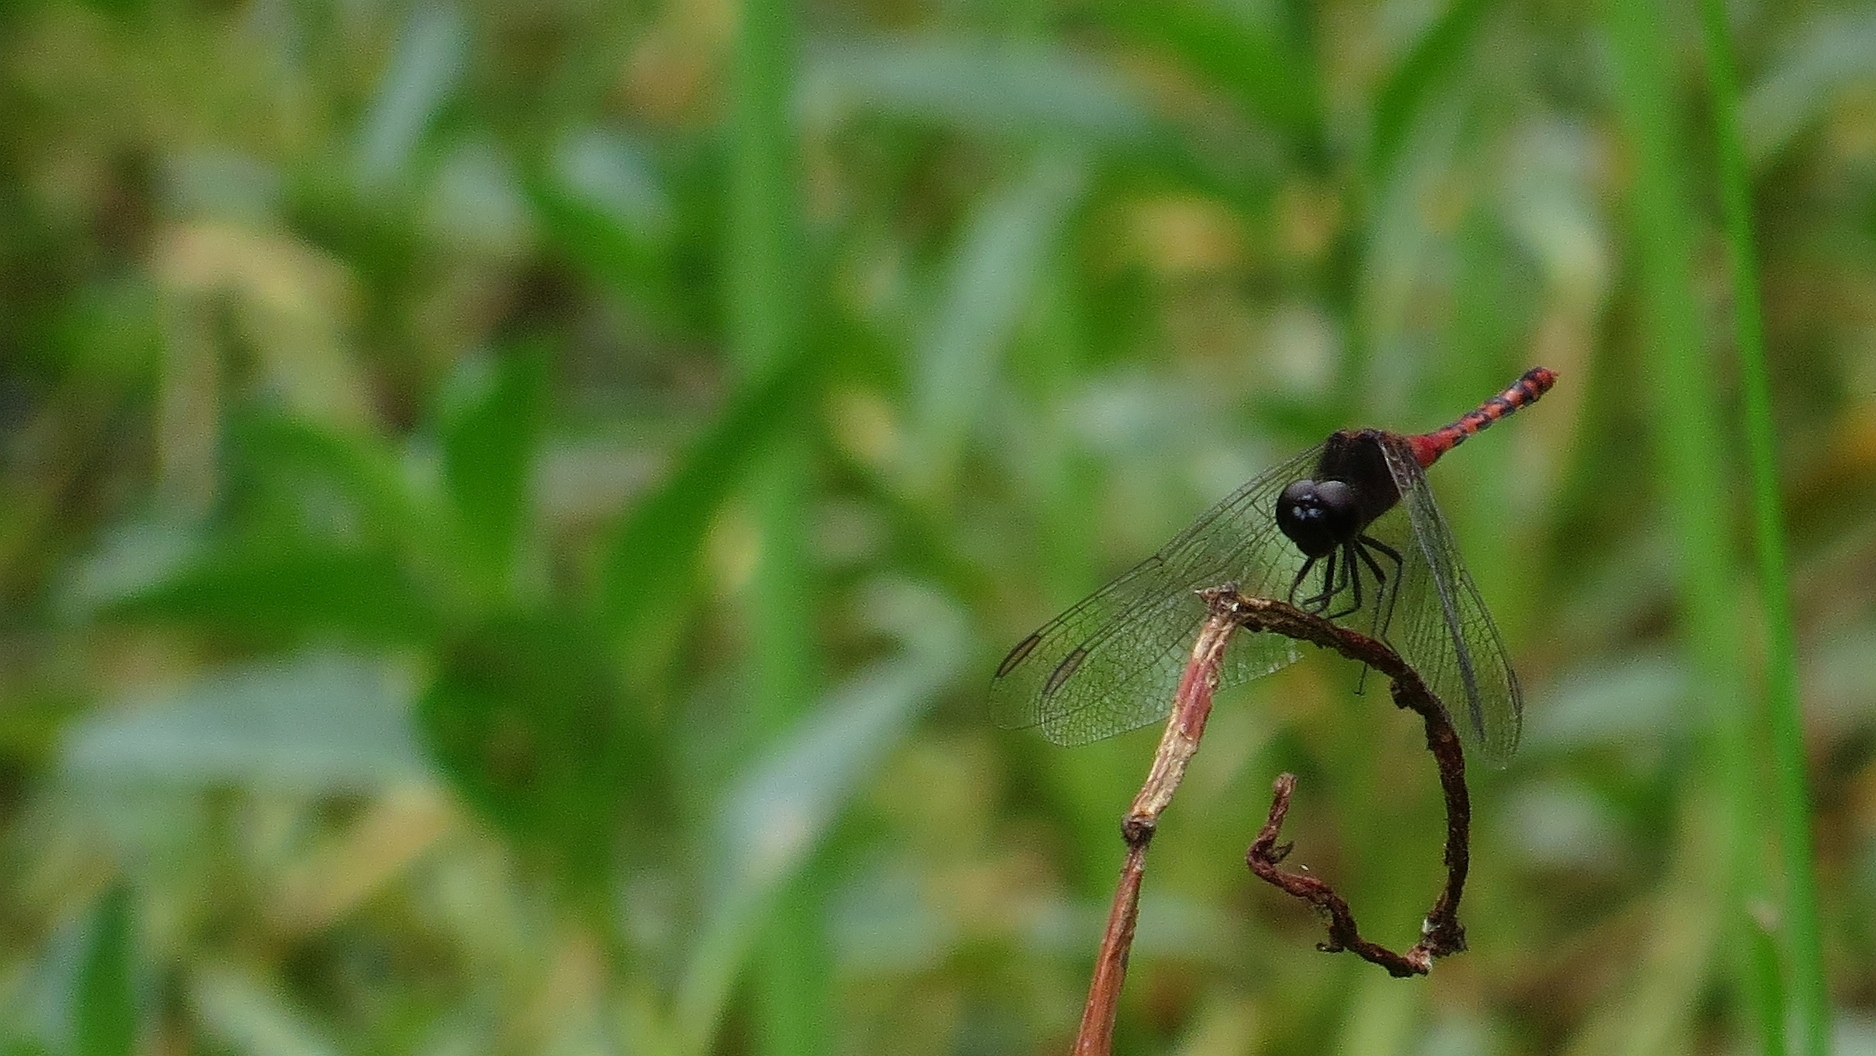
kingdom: Animalia
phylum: Arthropoda
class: Insecta
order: Odonata
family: Libellulidae
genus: Diplacodes
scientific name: Diplacodes melanopsis
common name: Black-faced percher
